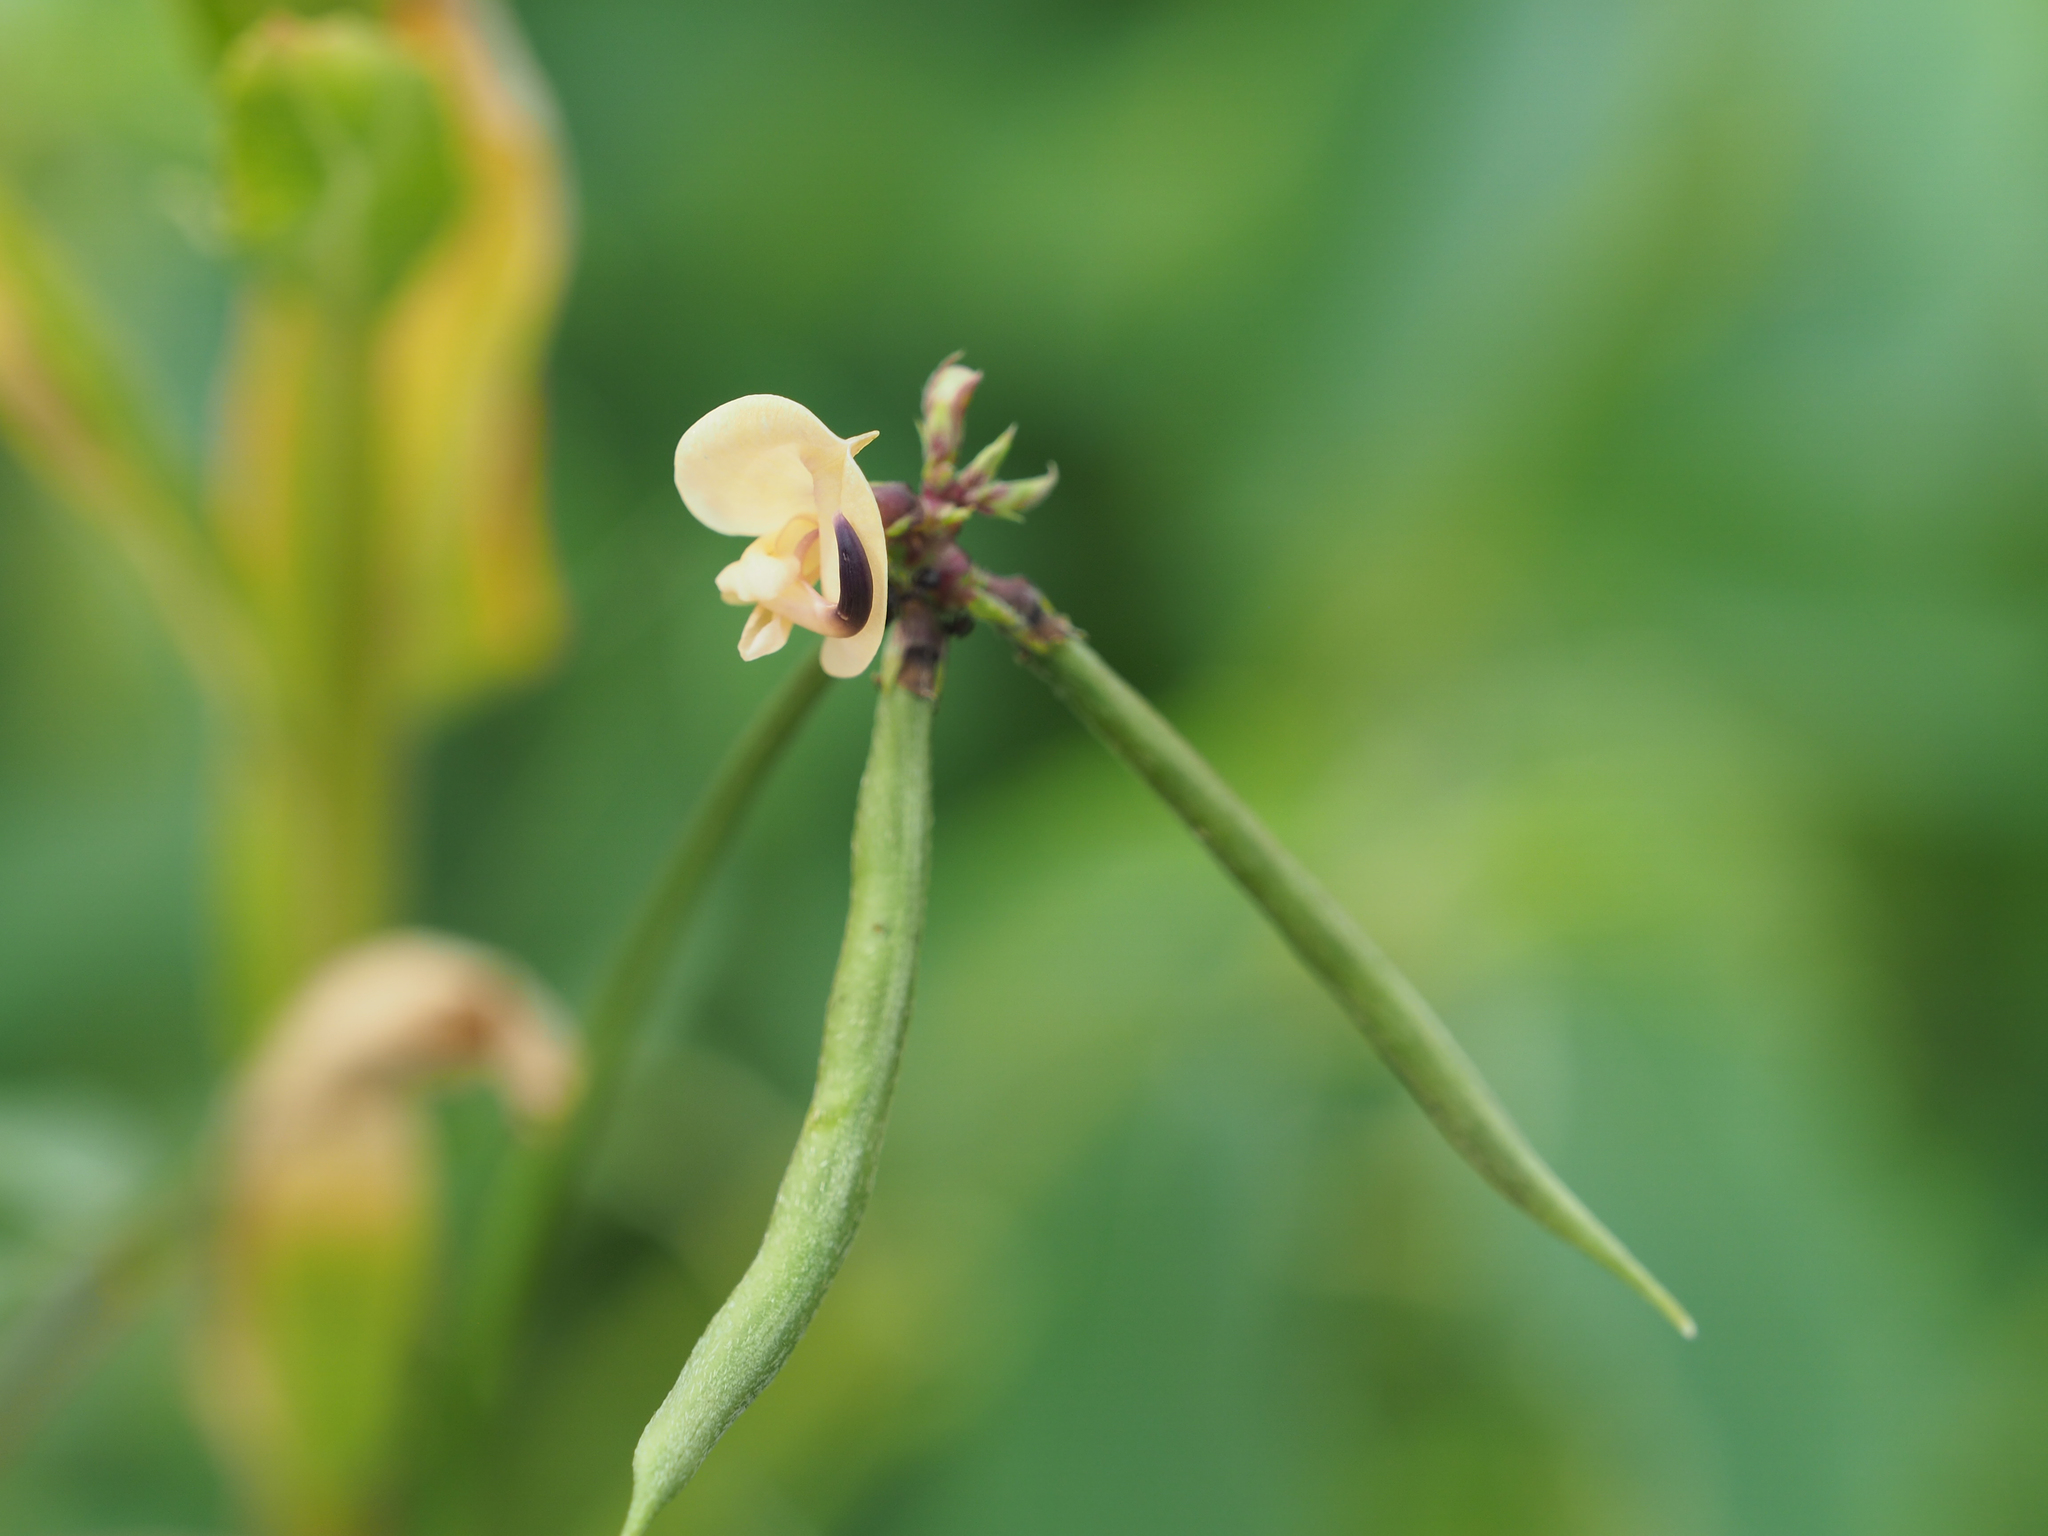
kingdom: Plantae
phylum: Tracheophyta
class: Magnoliopsida
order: Fabales
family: Fabaceae
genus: Strophostyles
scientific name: Strophostyles helvola
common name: Trailing wild bean
